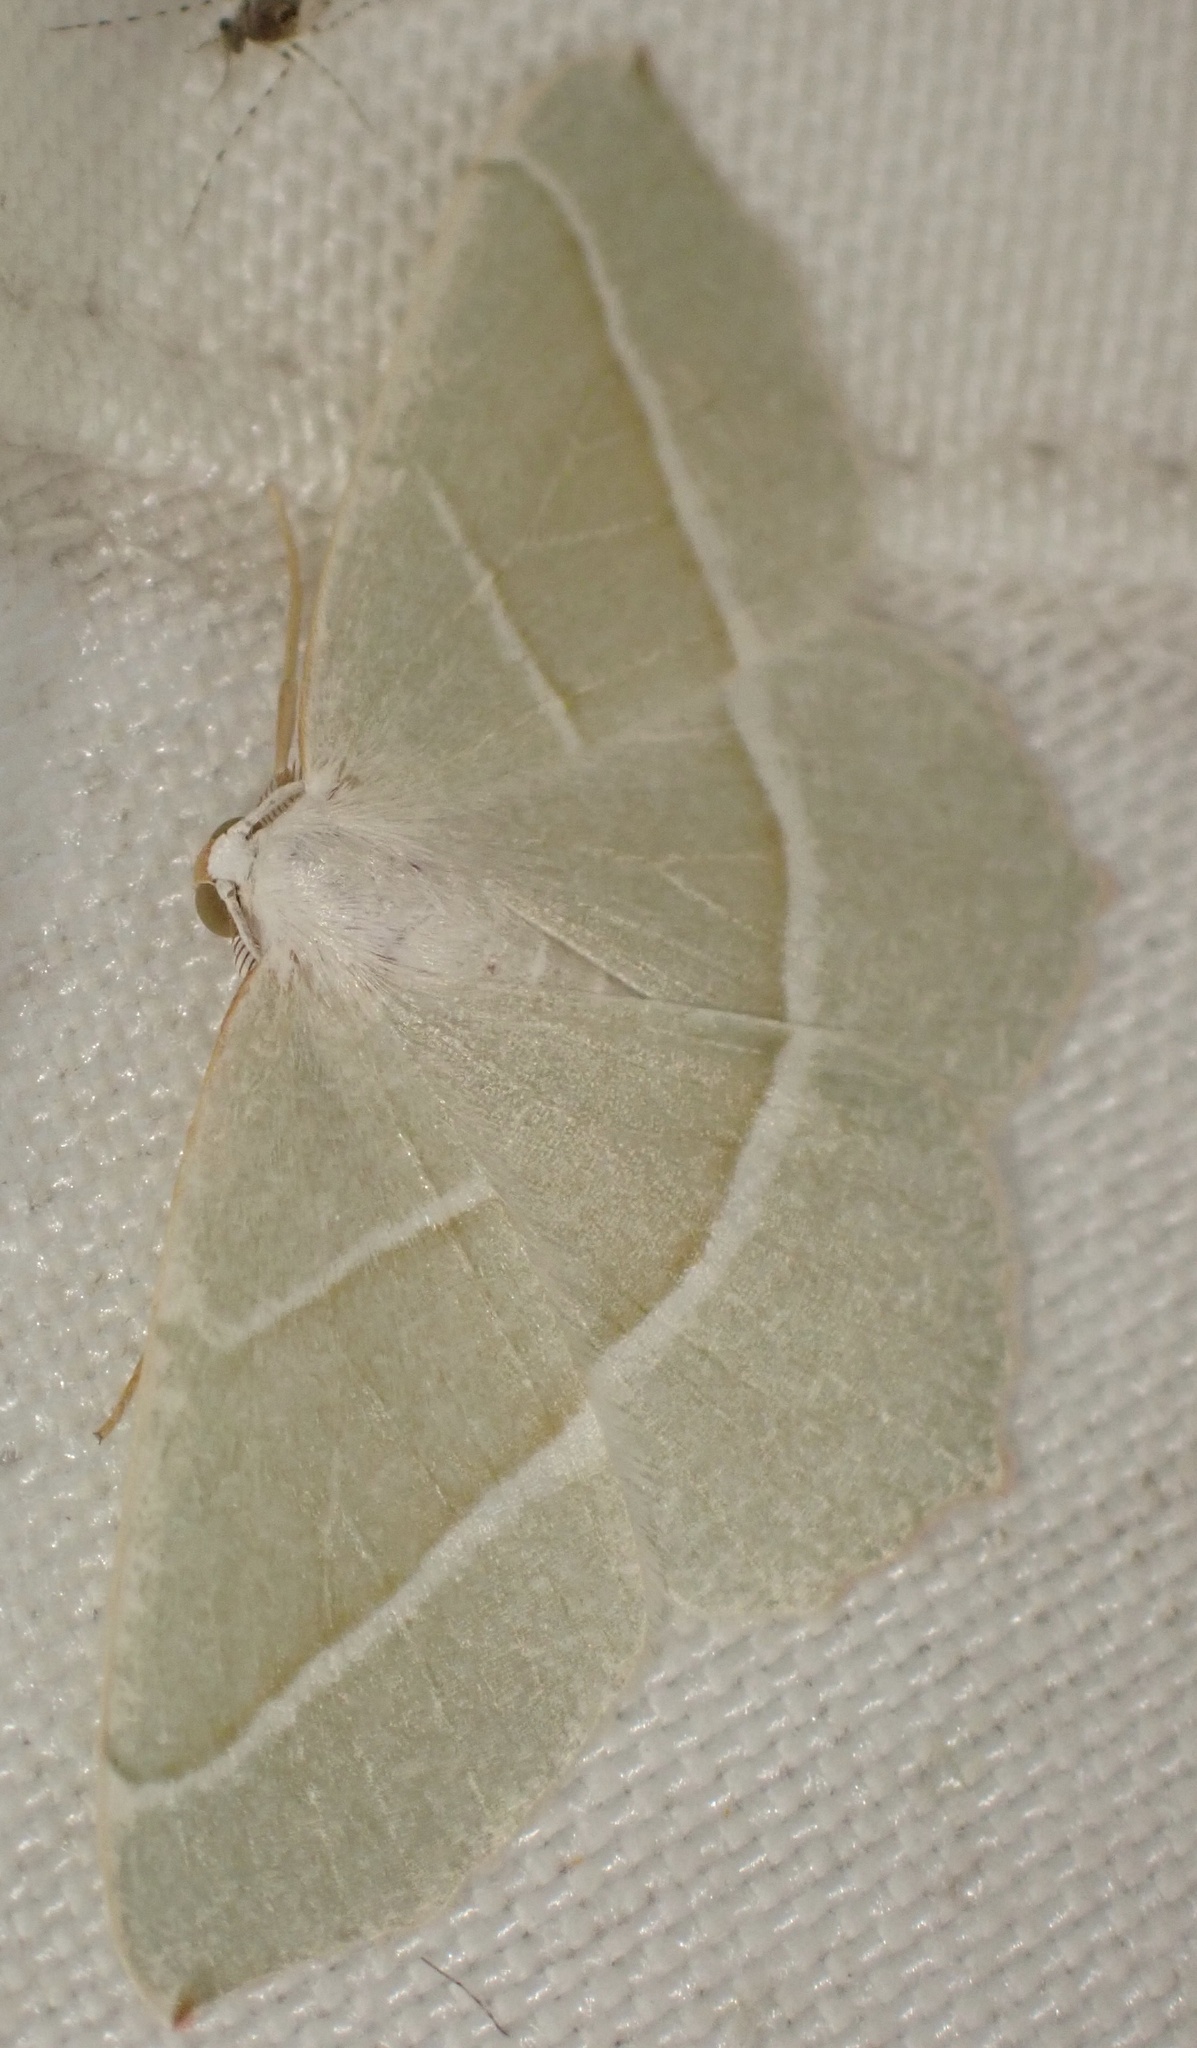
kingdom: Animalia
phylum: Arthropoda
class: Insecta
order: Lepidoptera
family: Geometridae
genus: Campaea
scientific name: Campaea margaritaria
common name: Light emerald
